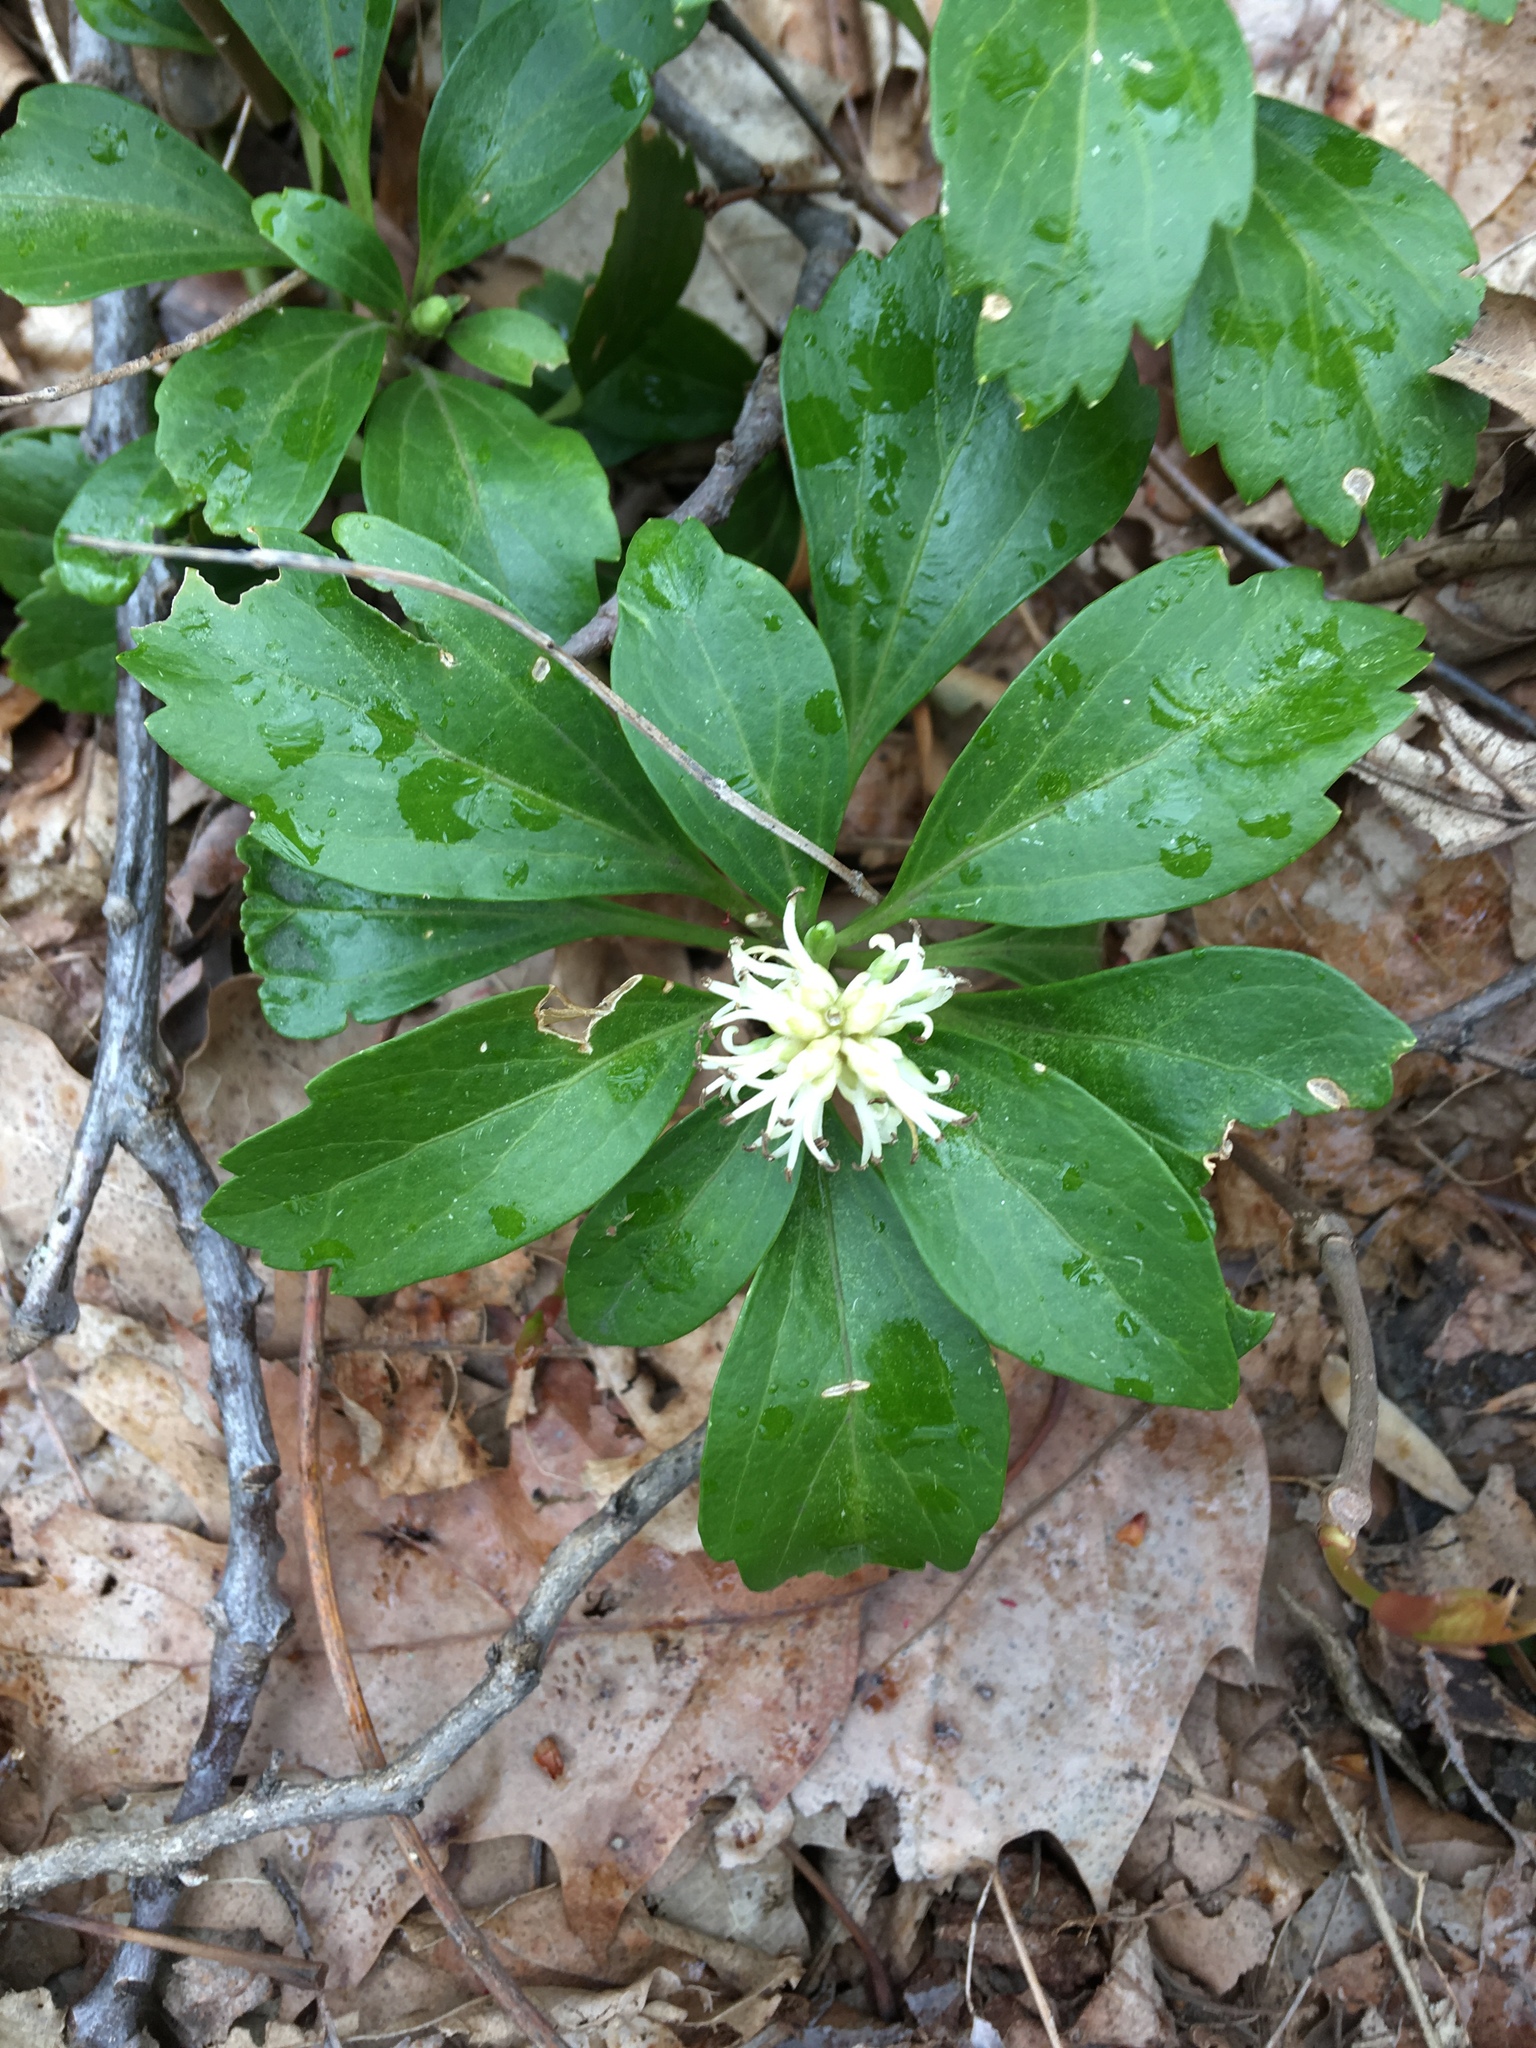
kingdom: Plantae
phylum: Tracheophyta
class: Magnoliopsida
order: Buxales
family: Buxaceae
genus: Pachysandra
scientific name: Pachysandra terminalis
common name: Japanese pachysandra
